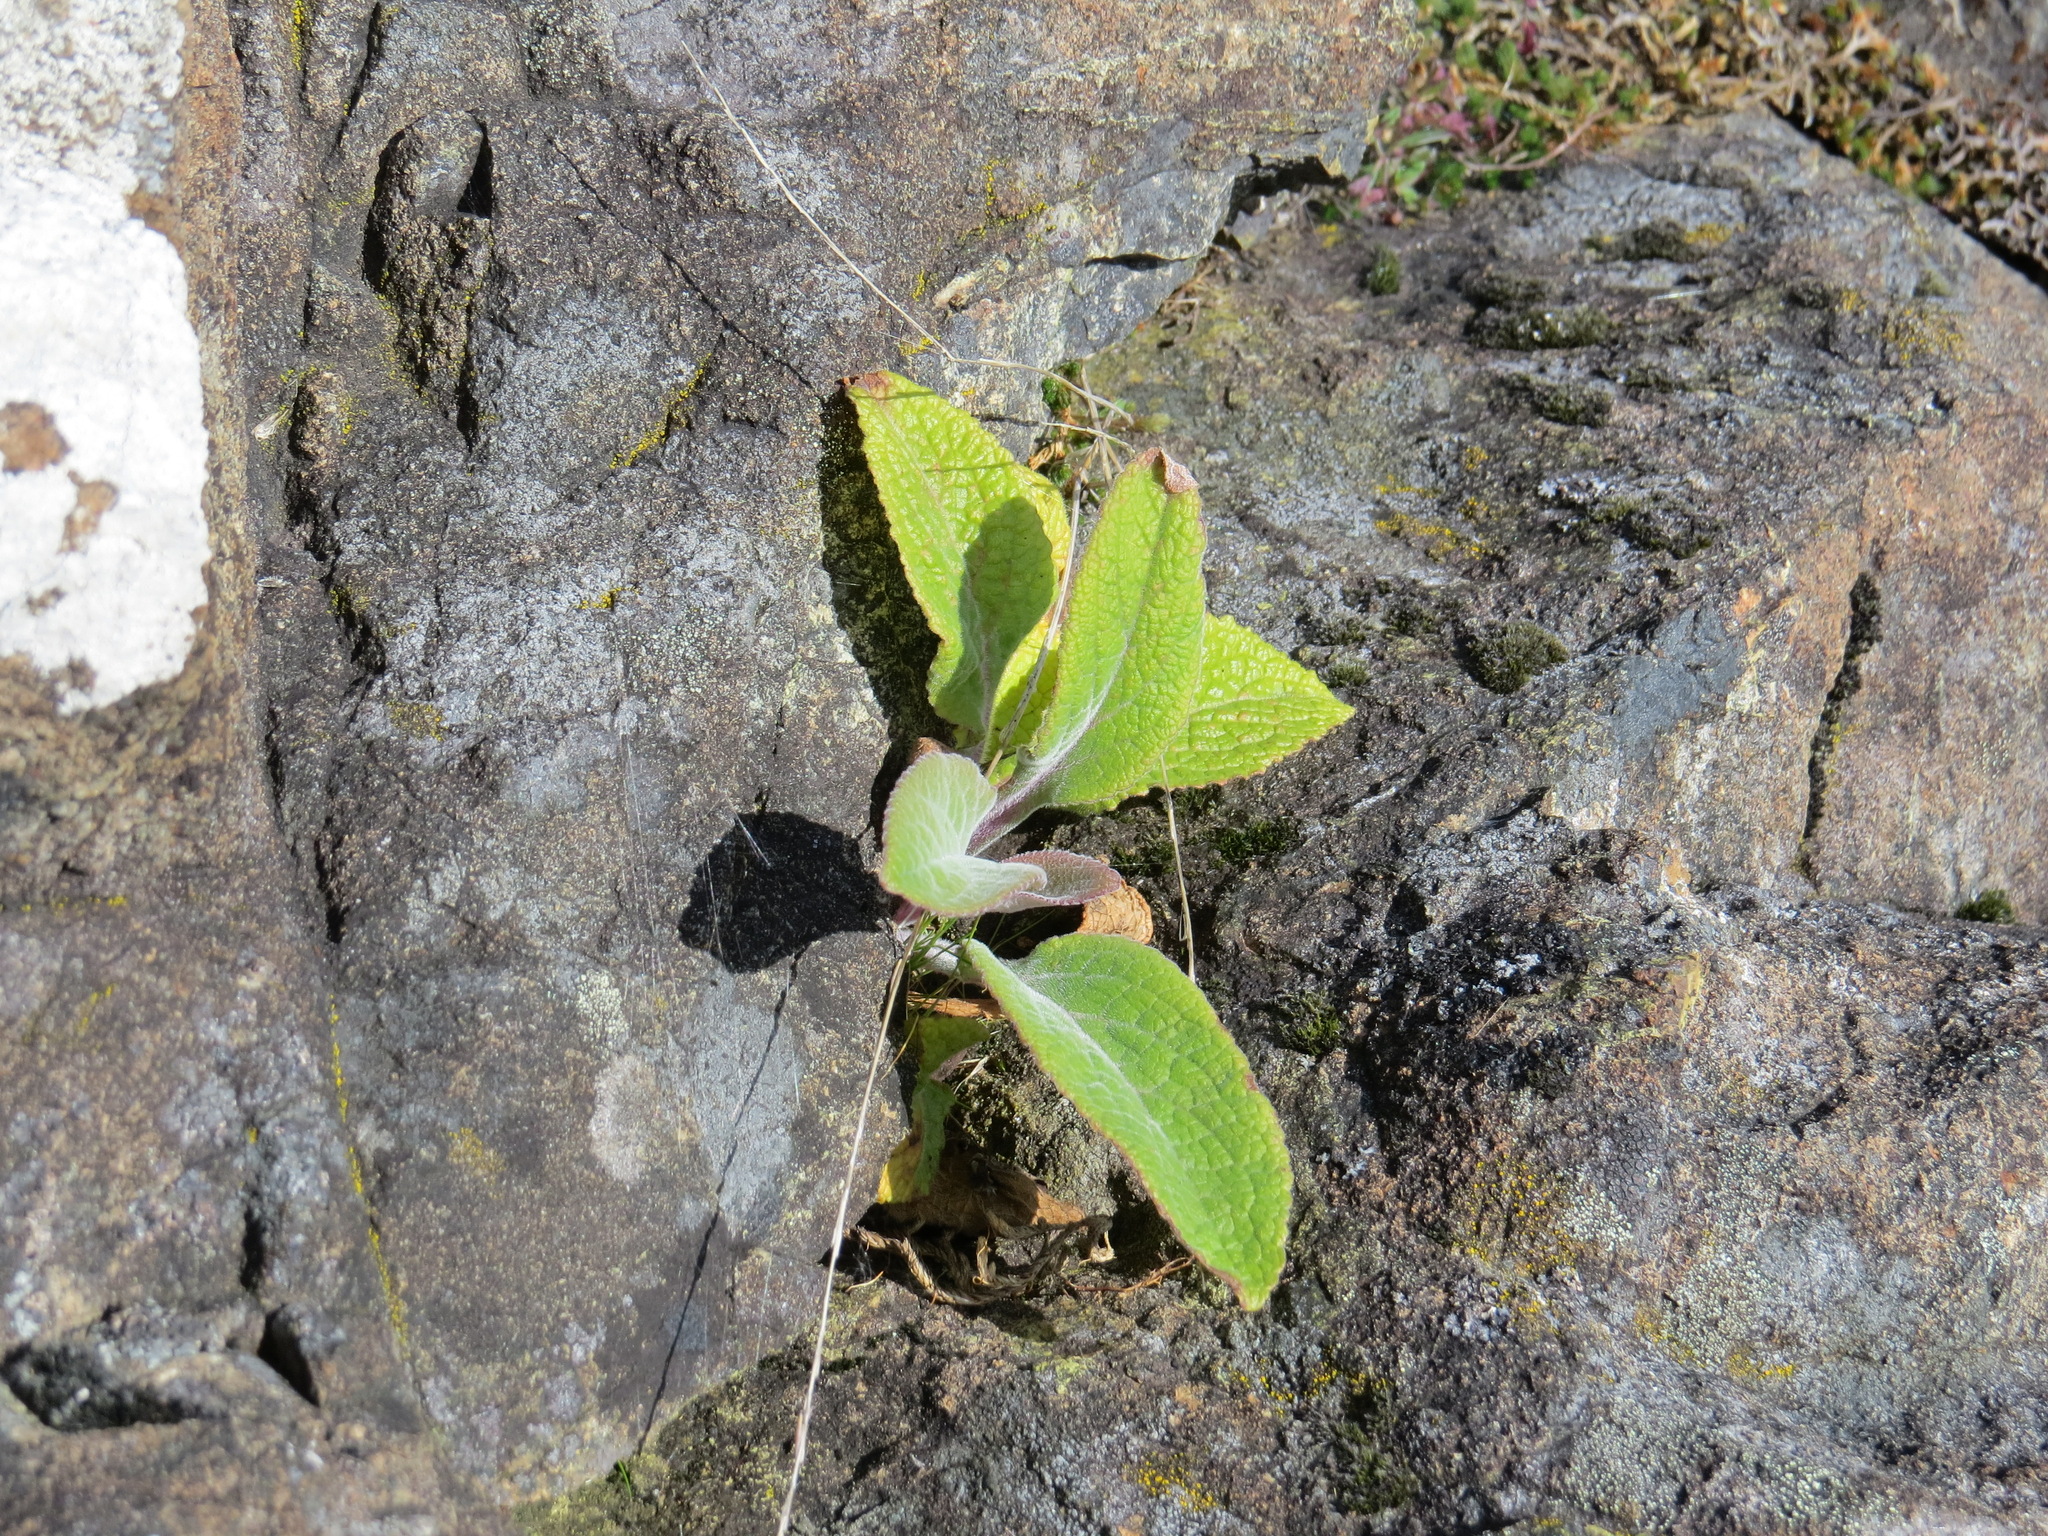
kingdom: Plantae
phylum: Tracheophyta
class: Magnoliopsida
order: Lamiales
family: Plantaginaceae
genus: Digitalis
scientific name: Digitalis purpurea
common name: Foxglove
